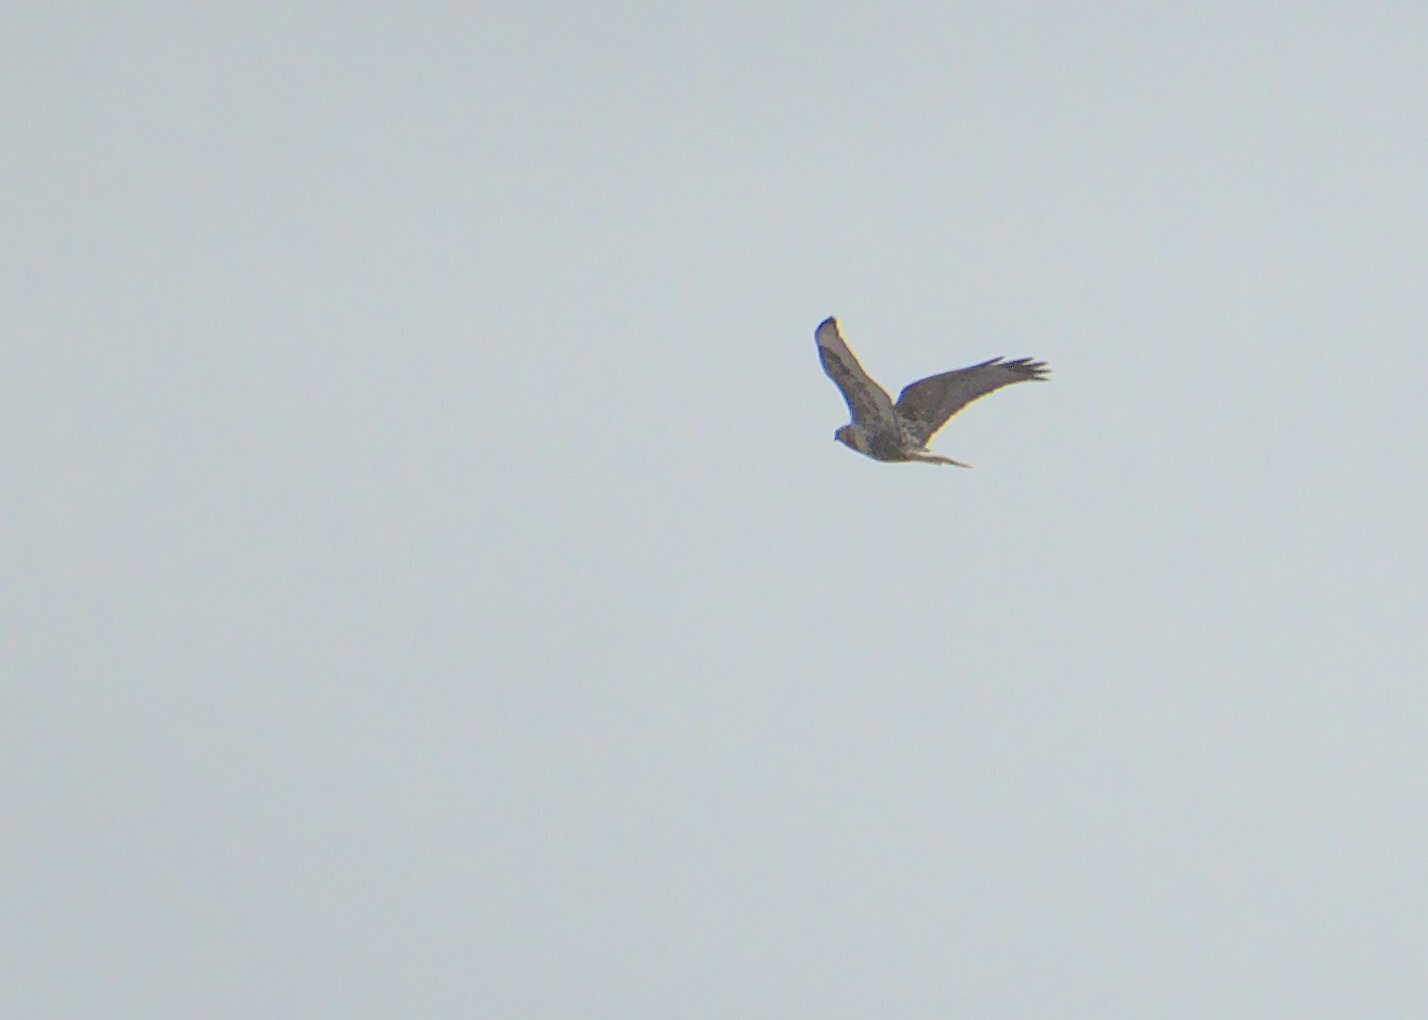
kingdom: Animalia
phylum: Chordata
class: Aves
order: Accipitriformes
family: Accipitridae
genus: Buteo
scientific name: Buteo lagopus
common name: Rough-legged buzzard
